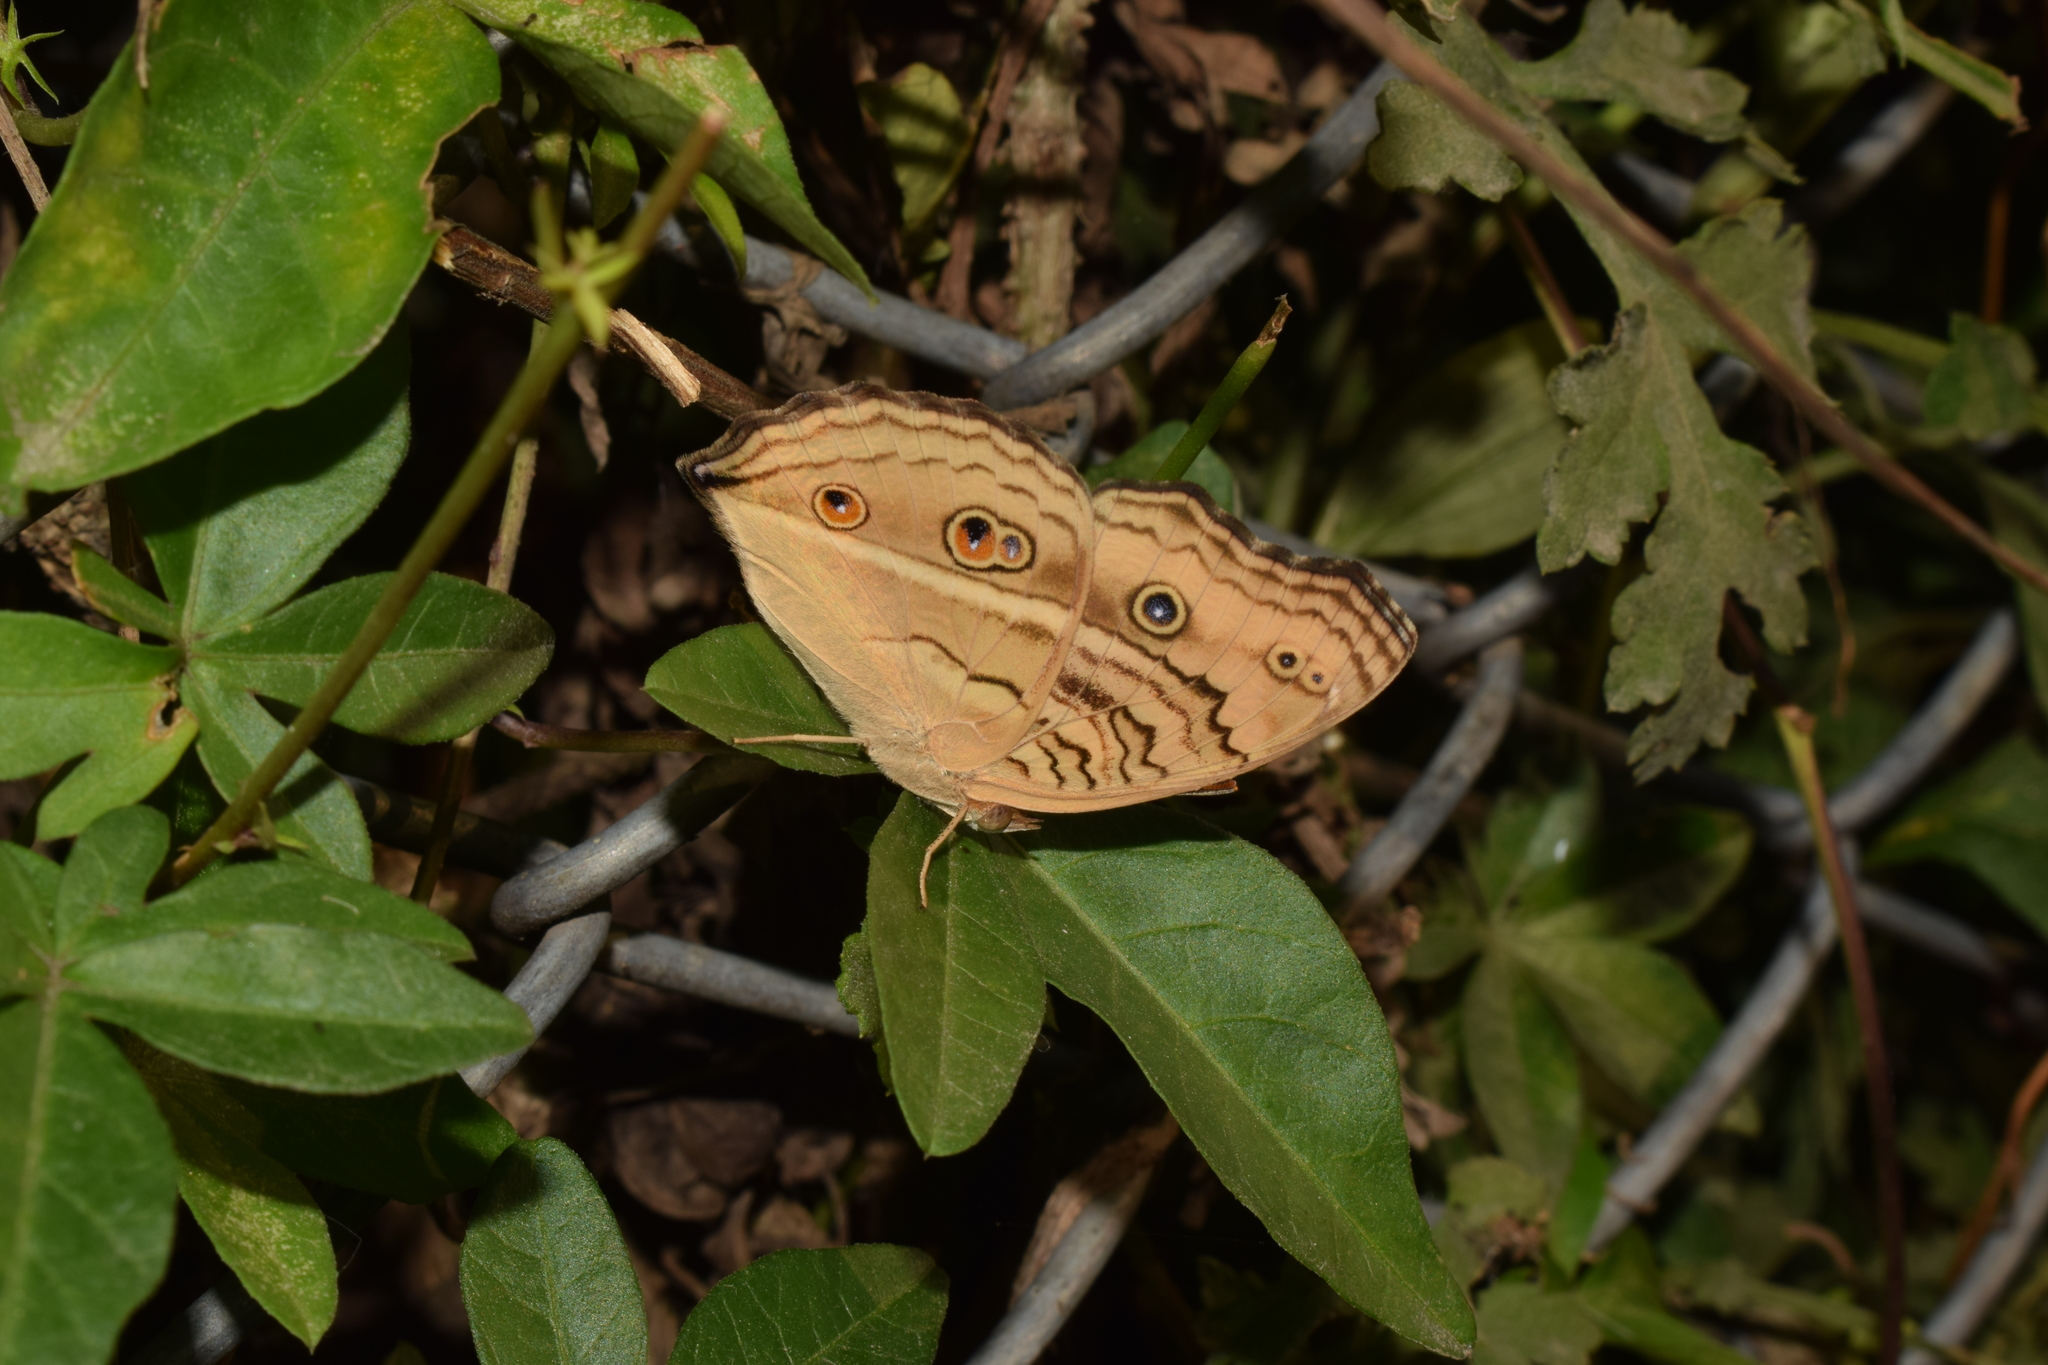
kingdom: Animalia
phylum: Arthropoda
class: Insecta
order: Lepidoptera
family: Nymphalidae
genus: Junonia
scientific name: Junonia almana
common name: Peacock pansy
